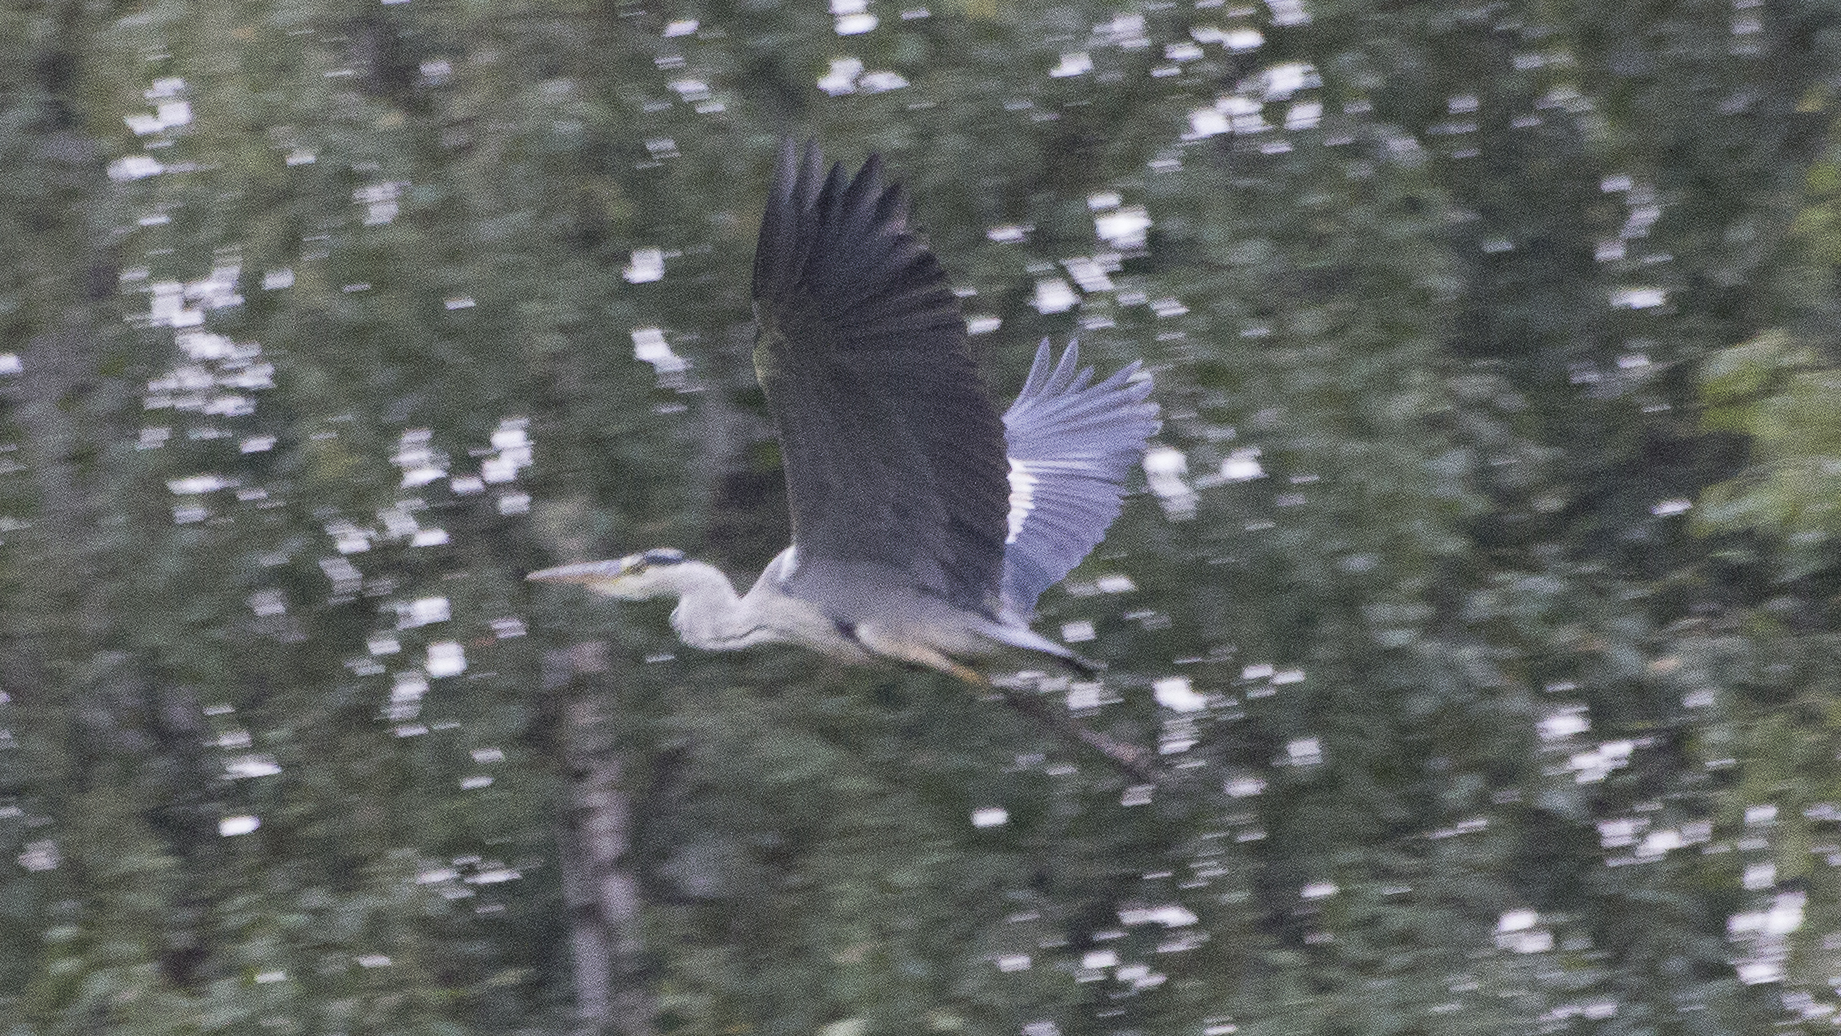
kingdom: Animalia
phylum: Chordata
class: Aves
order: Pelecaniformes
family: Ardeidae
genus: Ardea
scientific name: Ardea cinerea
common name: Grey heron
